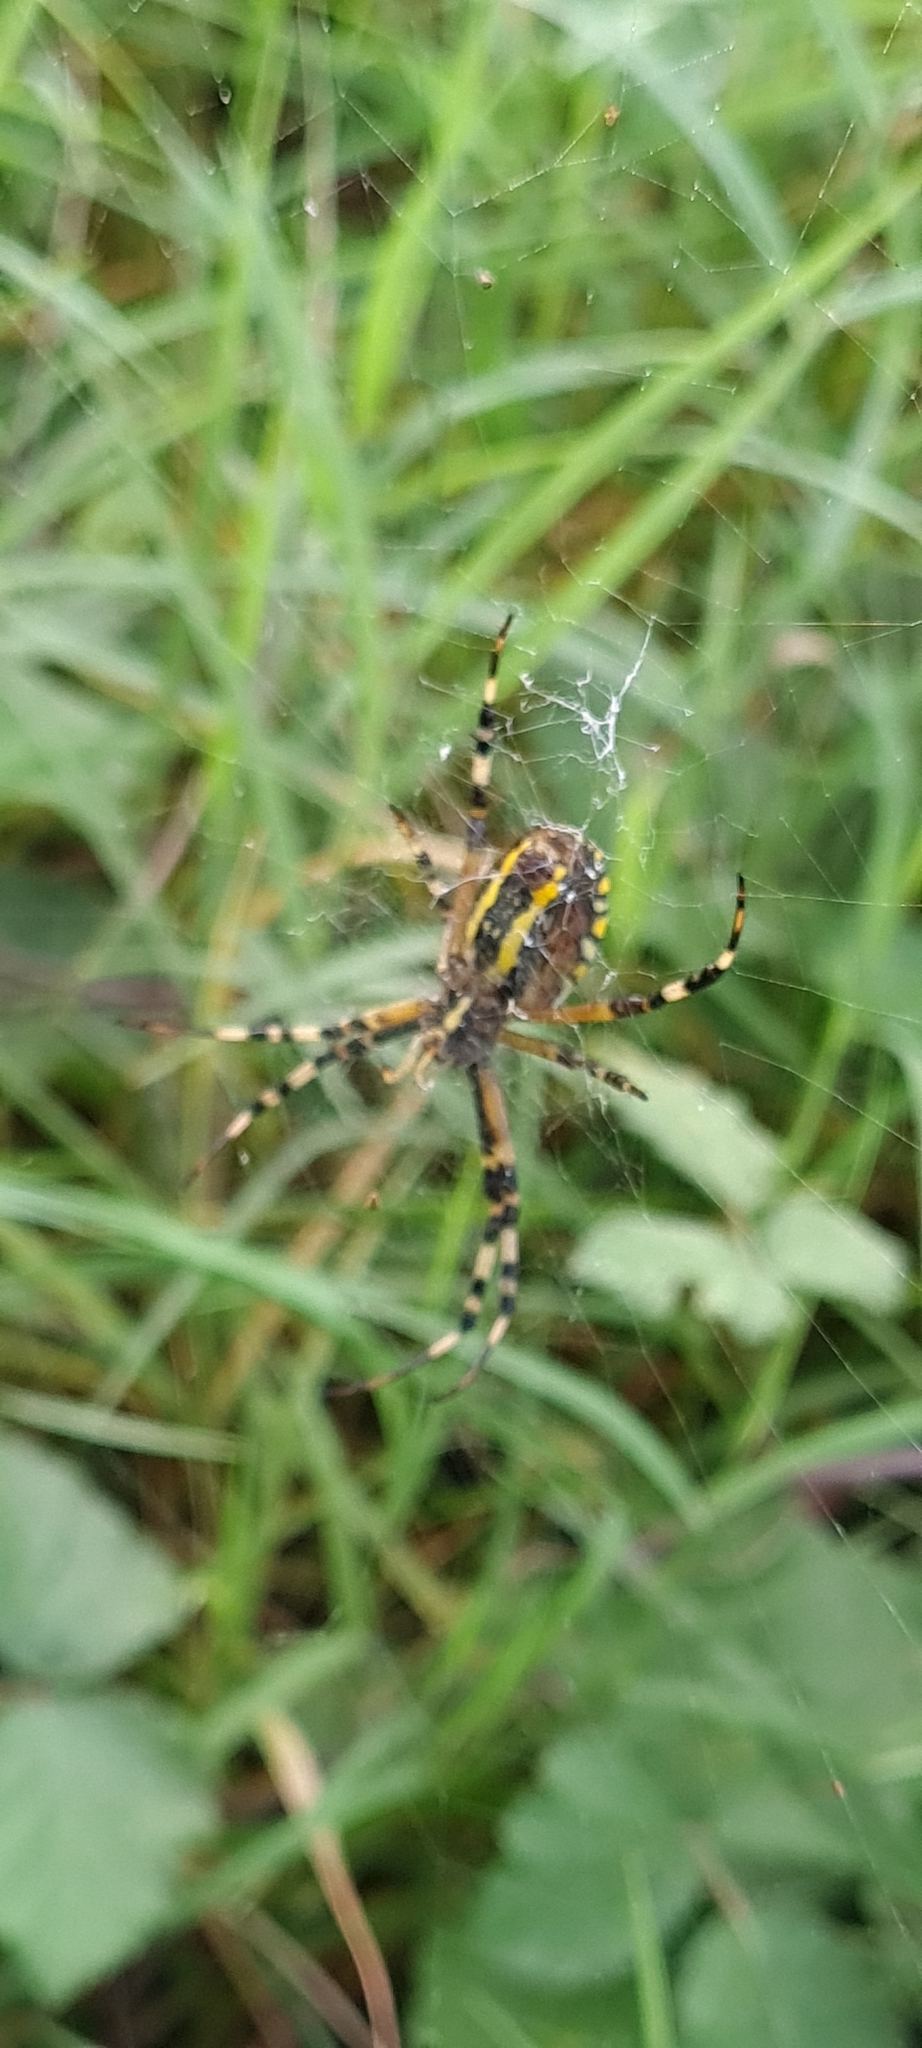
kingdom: Animalia
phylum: Arthropoda
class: Arachnida
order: Araneae
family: Araneidae
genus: Argiope
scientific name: Argiope bruennichi
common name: Wasp spider
